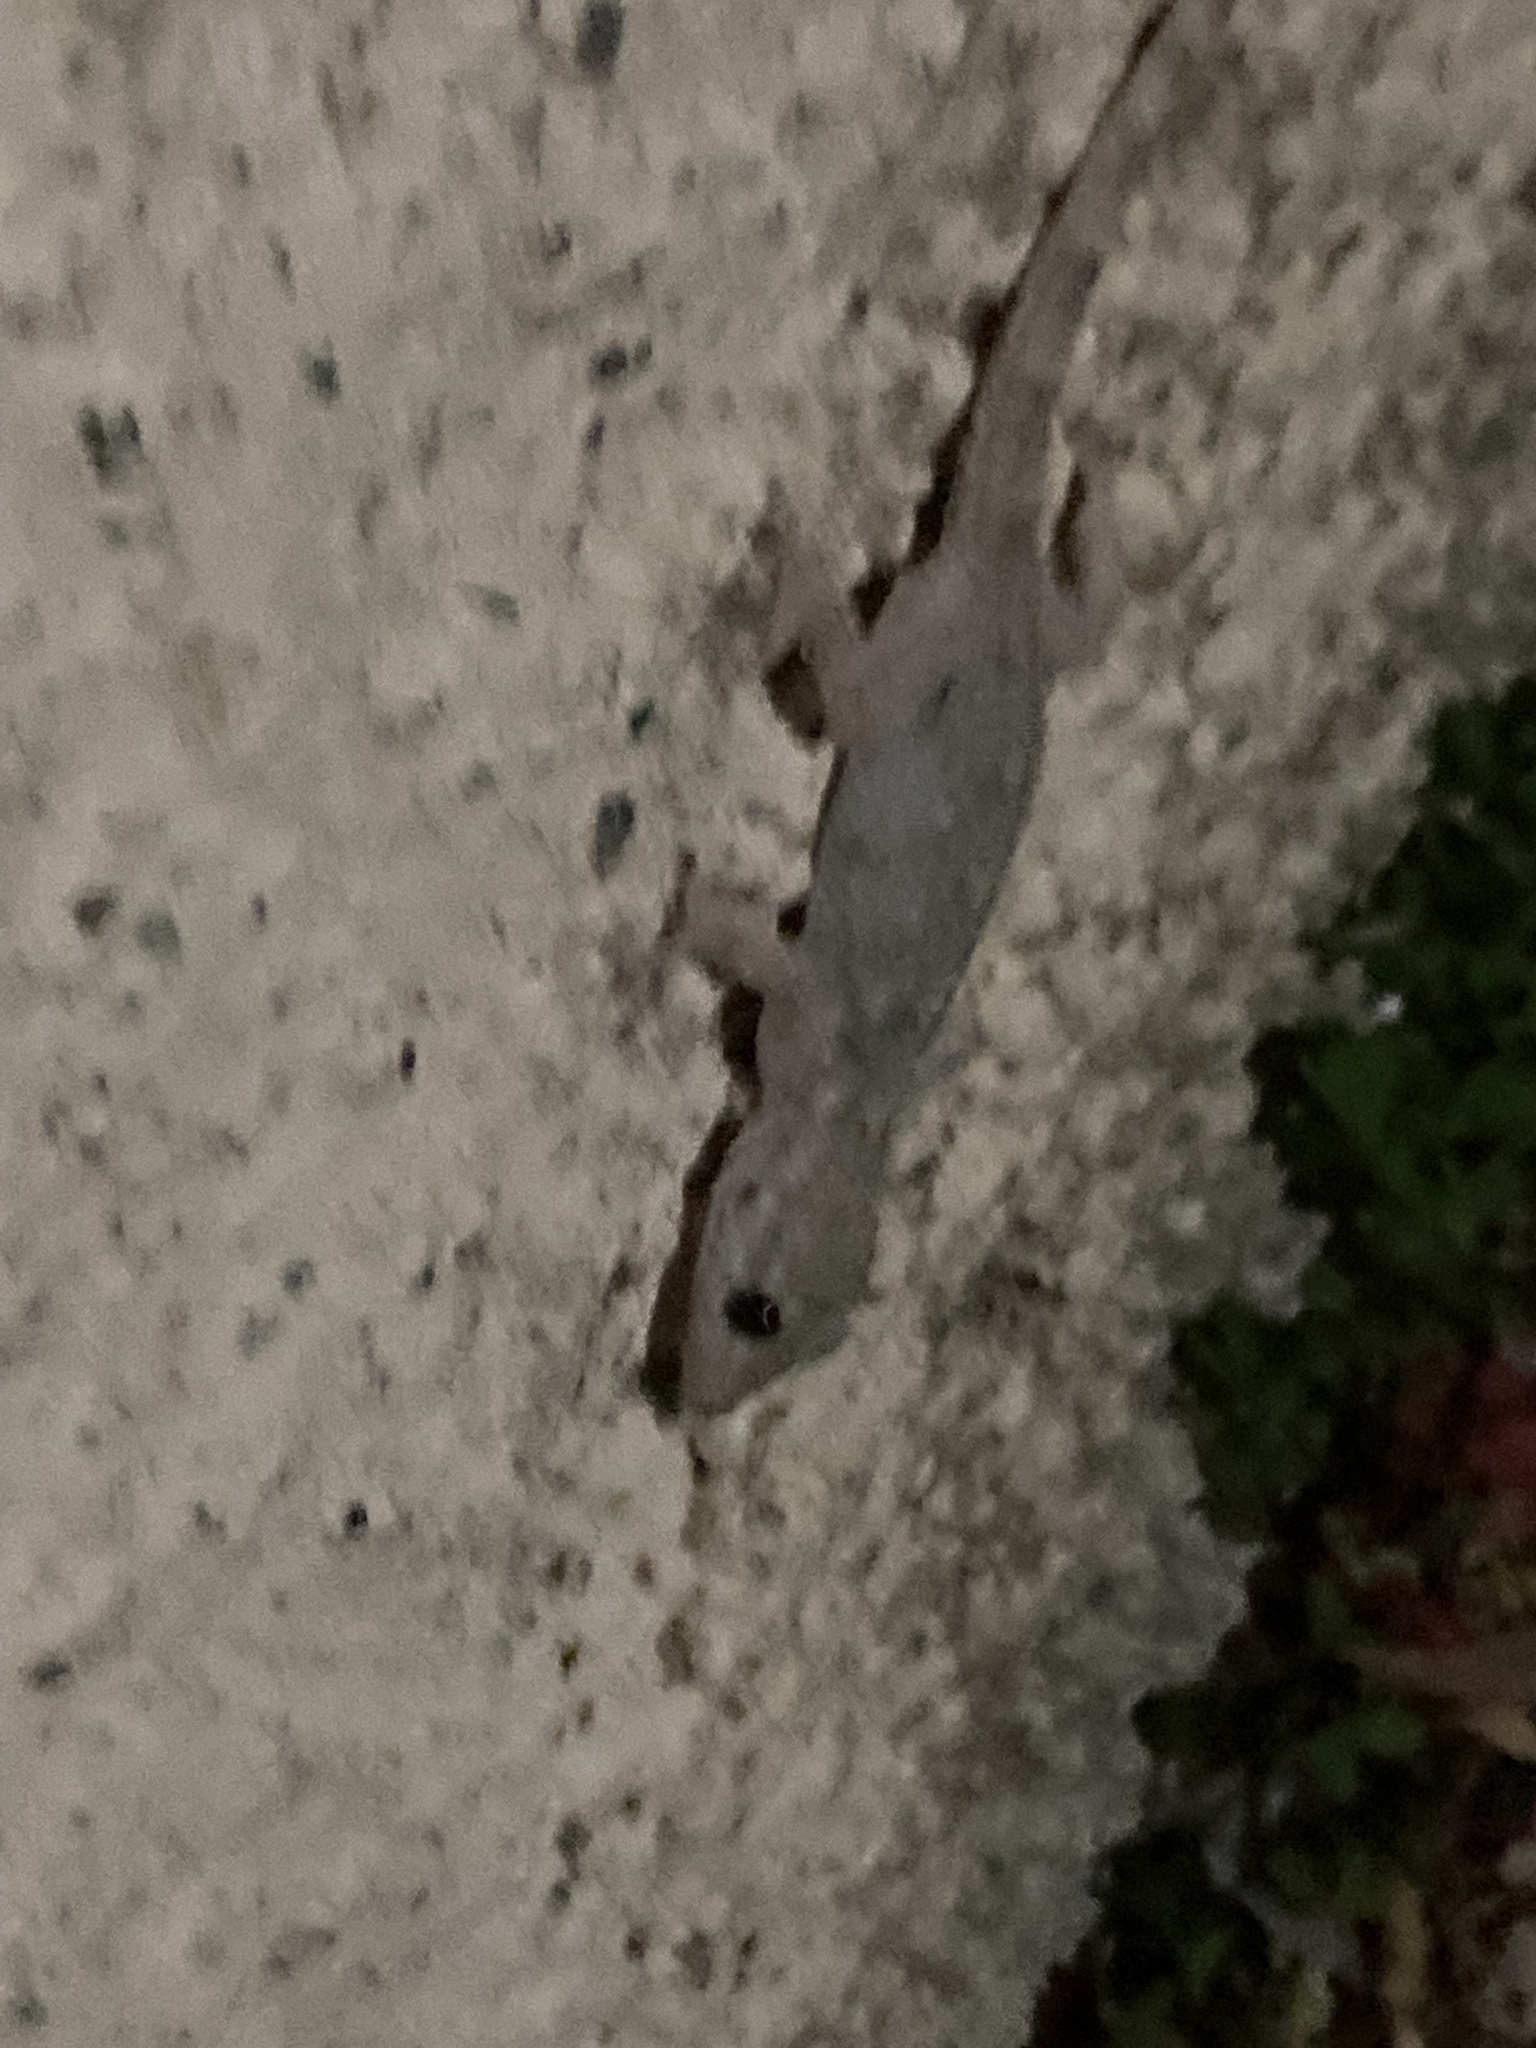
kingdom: Animalia
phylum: Chordata
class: Squamata
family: Phyllodactylidae
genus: Tarentola
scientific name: Tarentola mauritanica
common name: Moorish gecko
